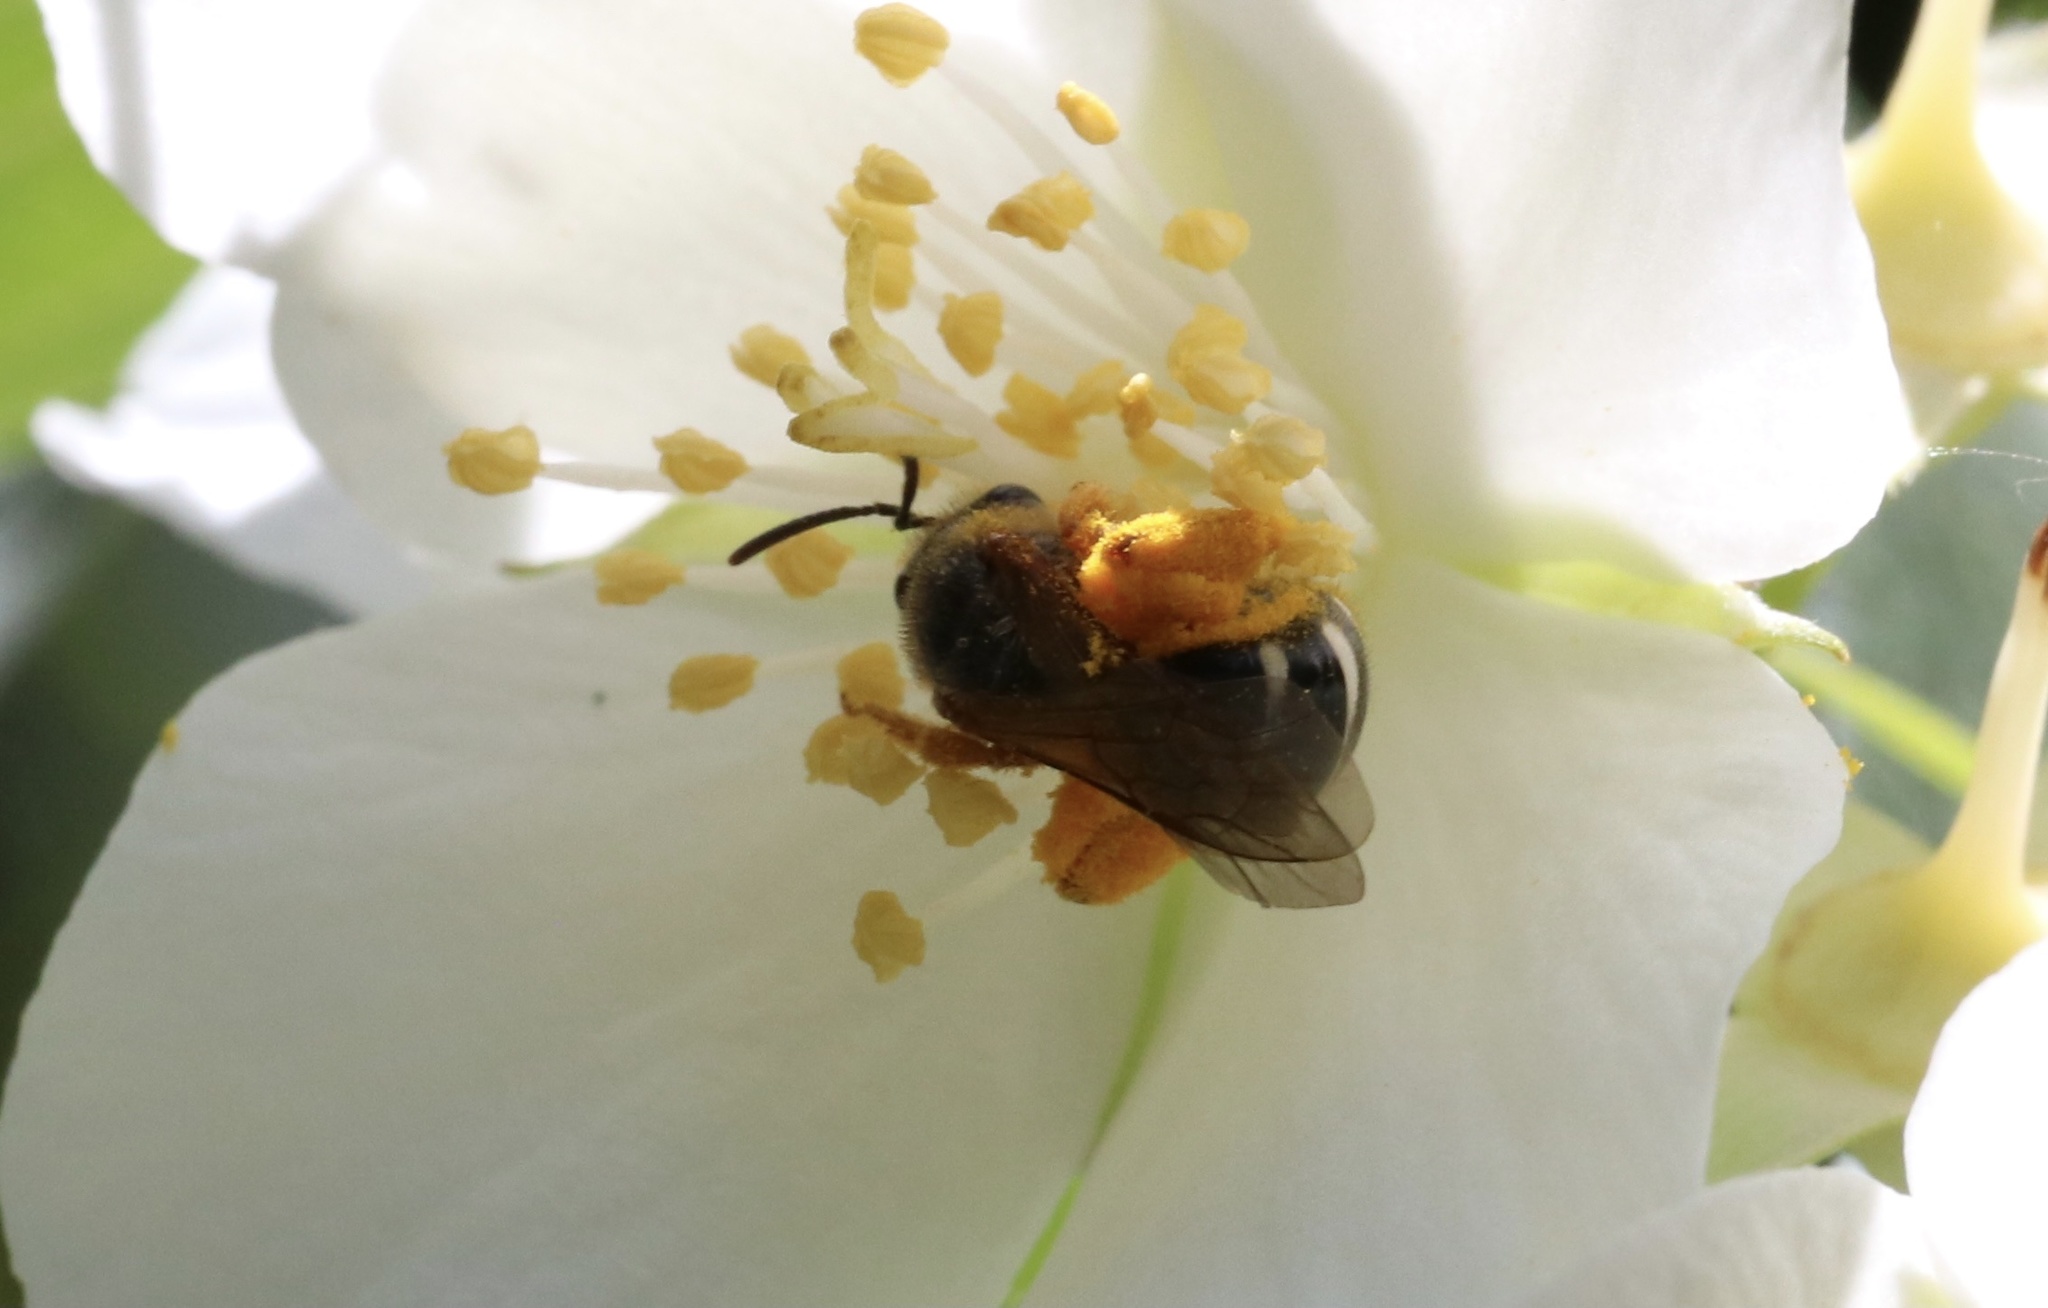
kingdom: Animalia
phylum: Arthropoda
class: Insecta
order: Hymenoptera
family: Halictidae
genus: Ruizantheda
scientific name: Ruizantheda proxima
